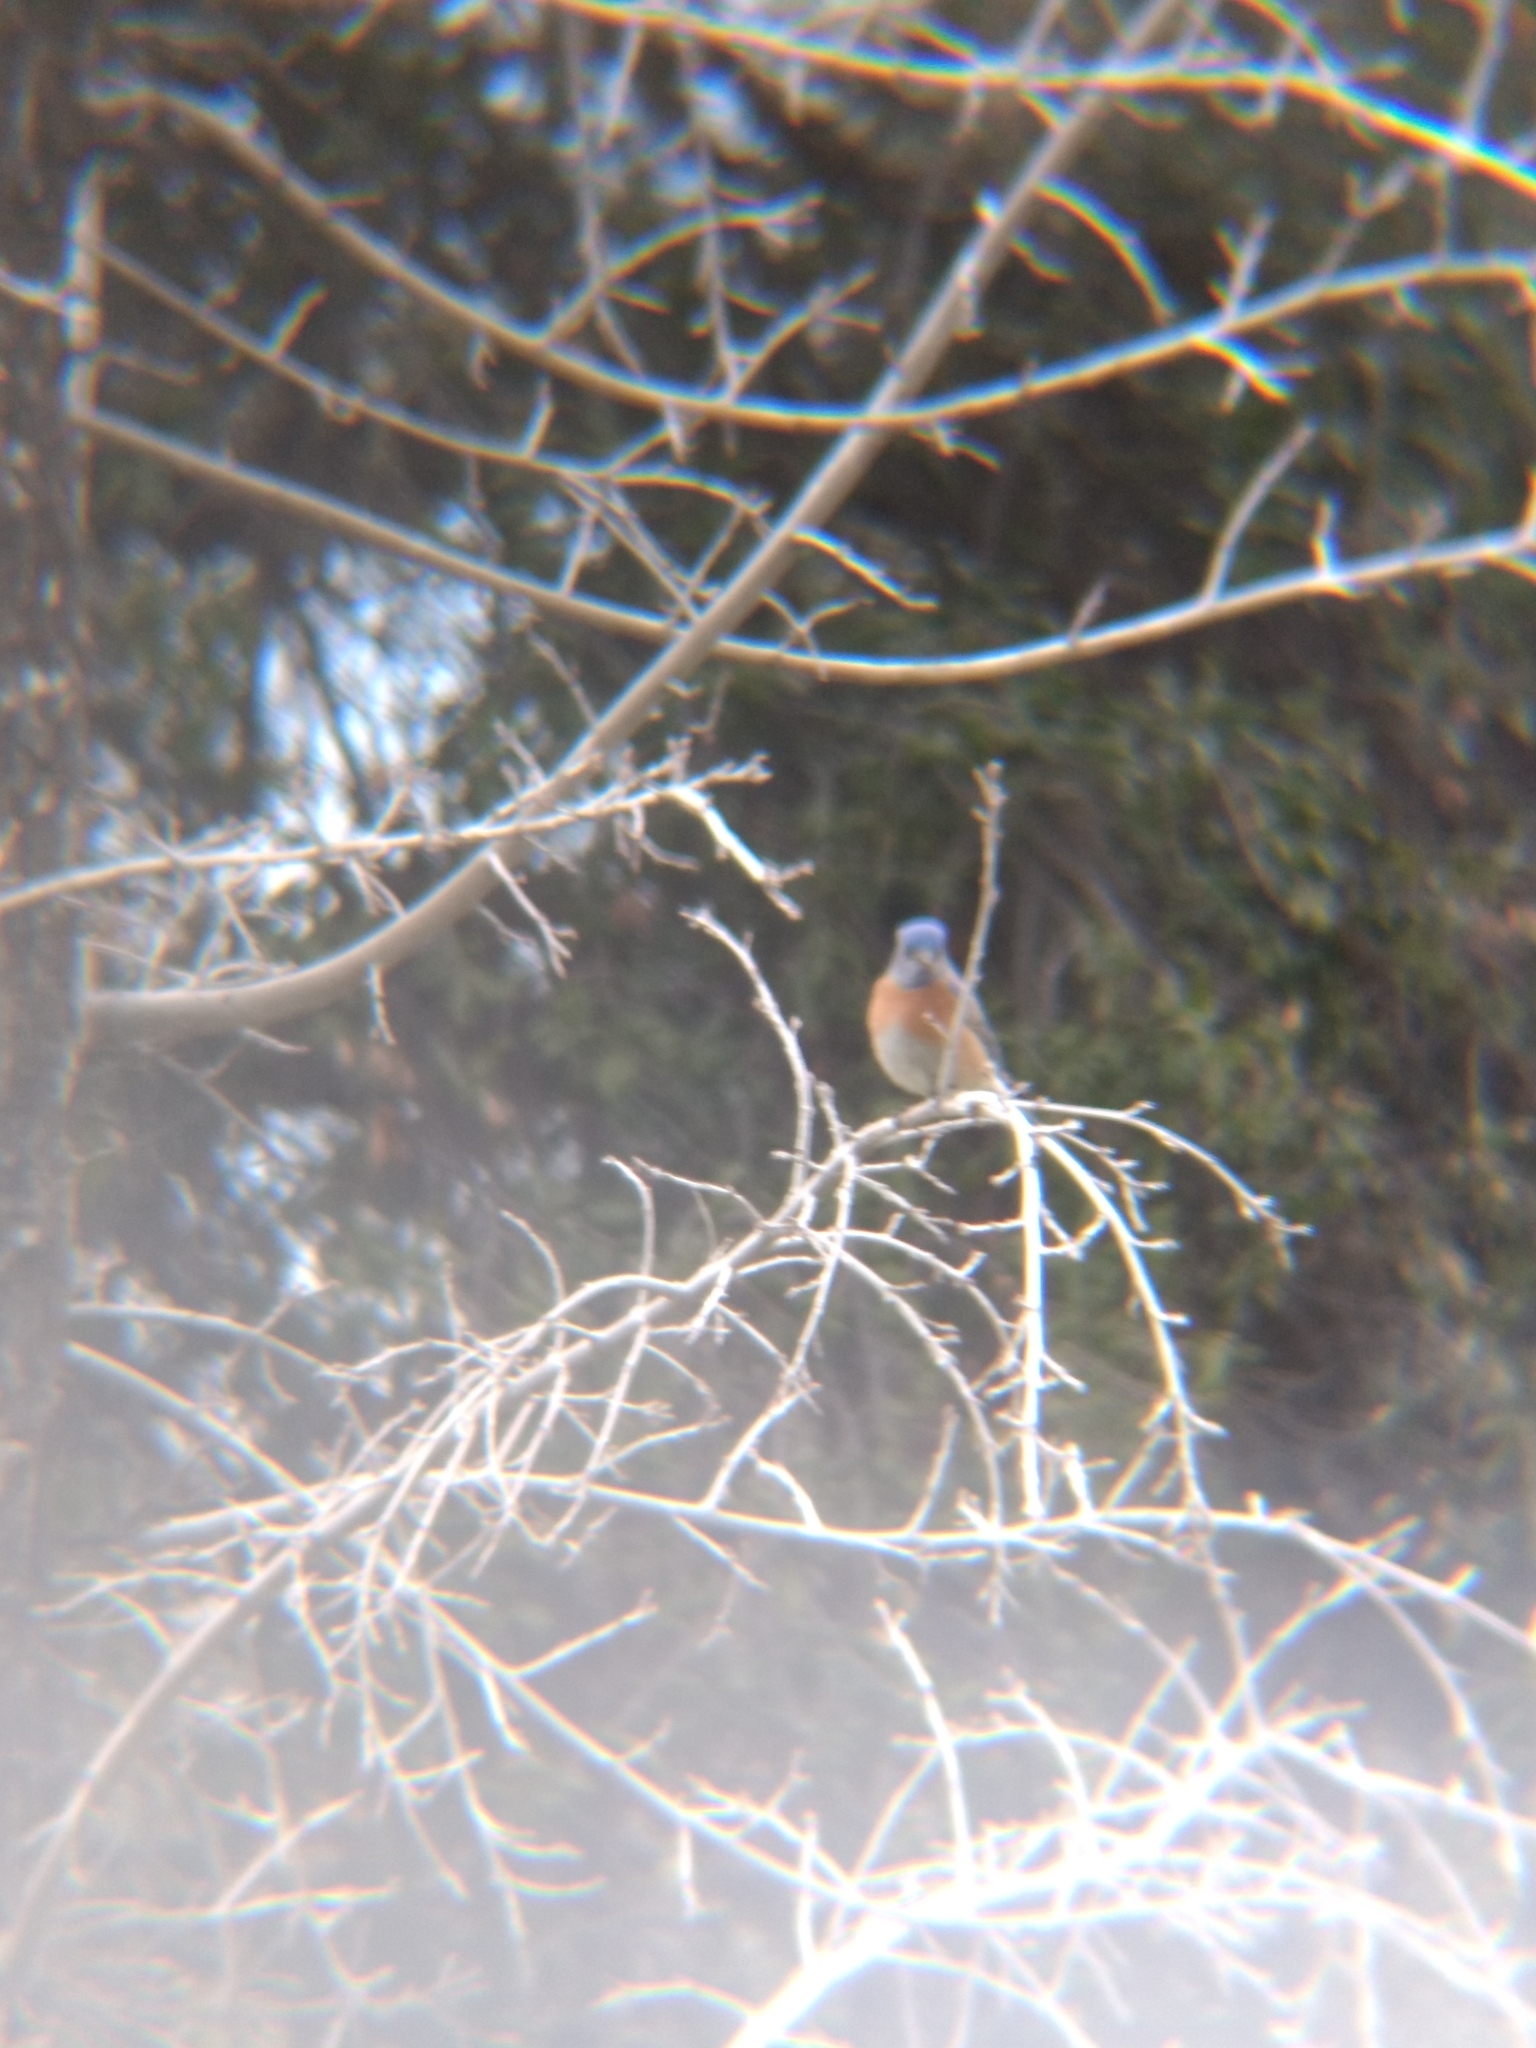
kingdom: Animalia
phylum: Chordata
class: Aves
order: Passeriformes
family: Turdidae
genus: Sialia
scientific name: Sialia mexicana
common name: Western bluebird
